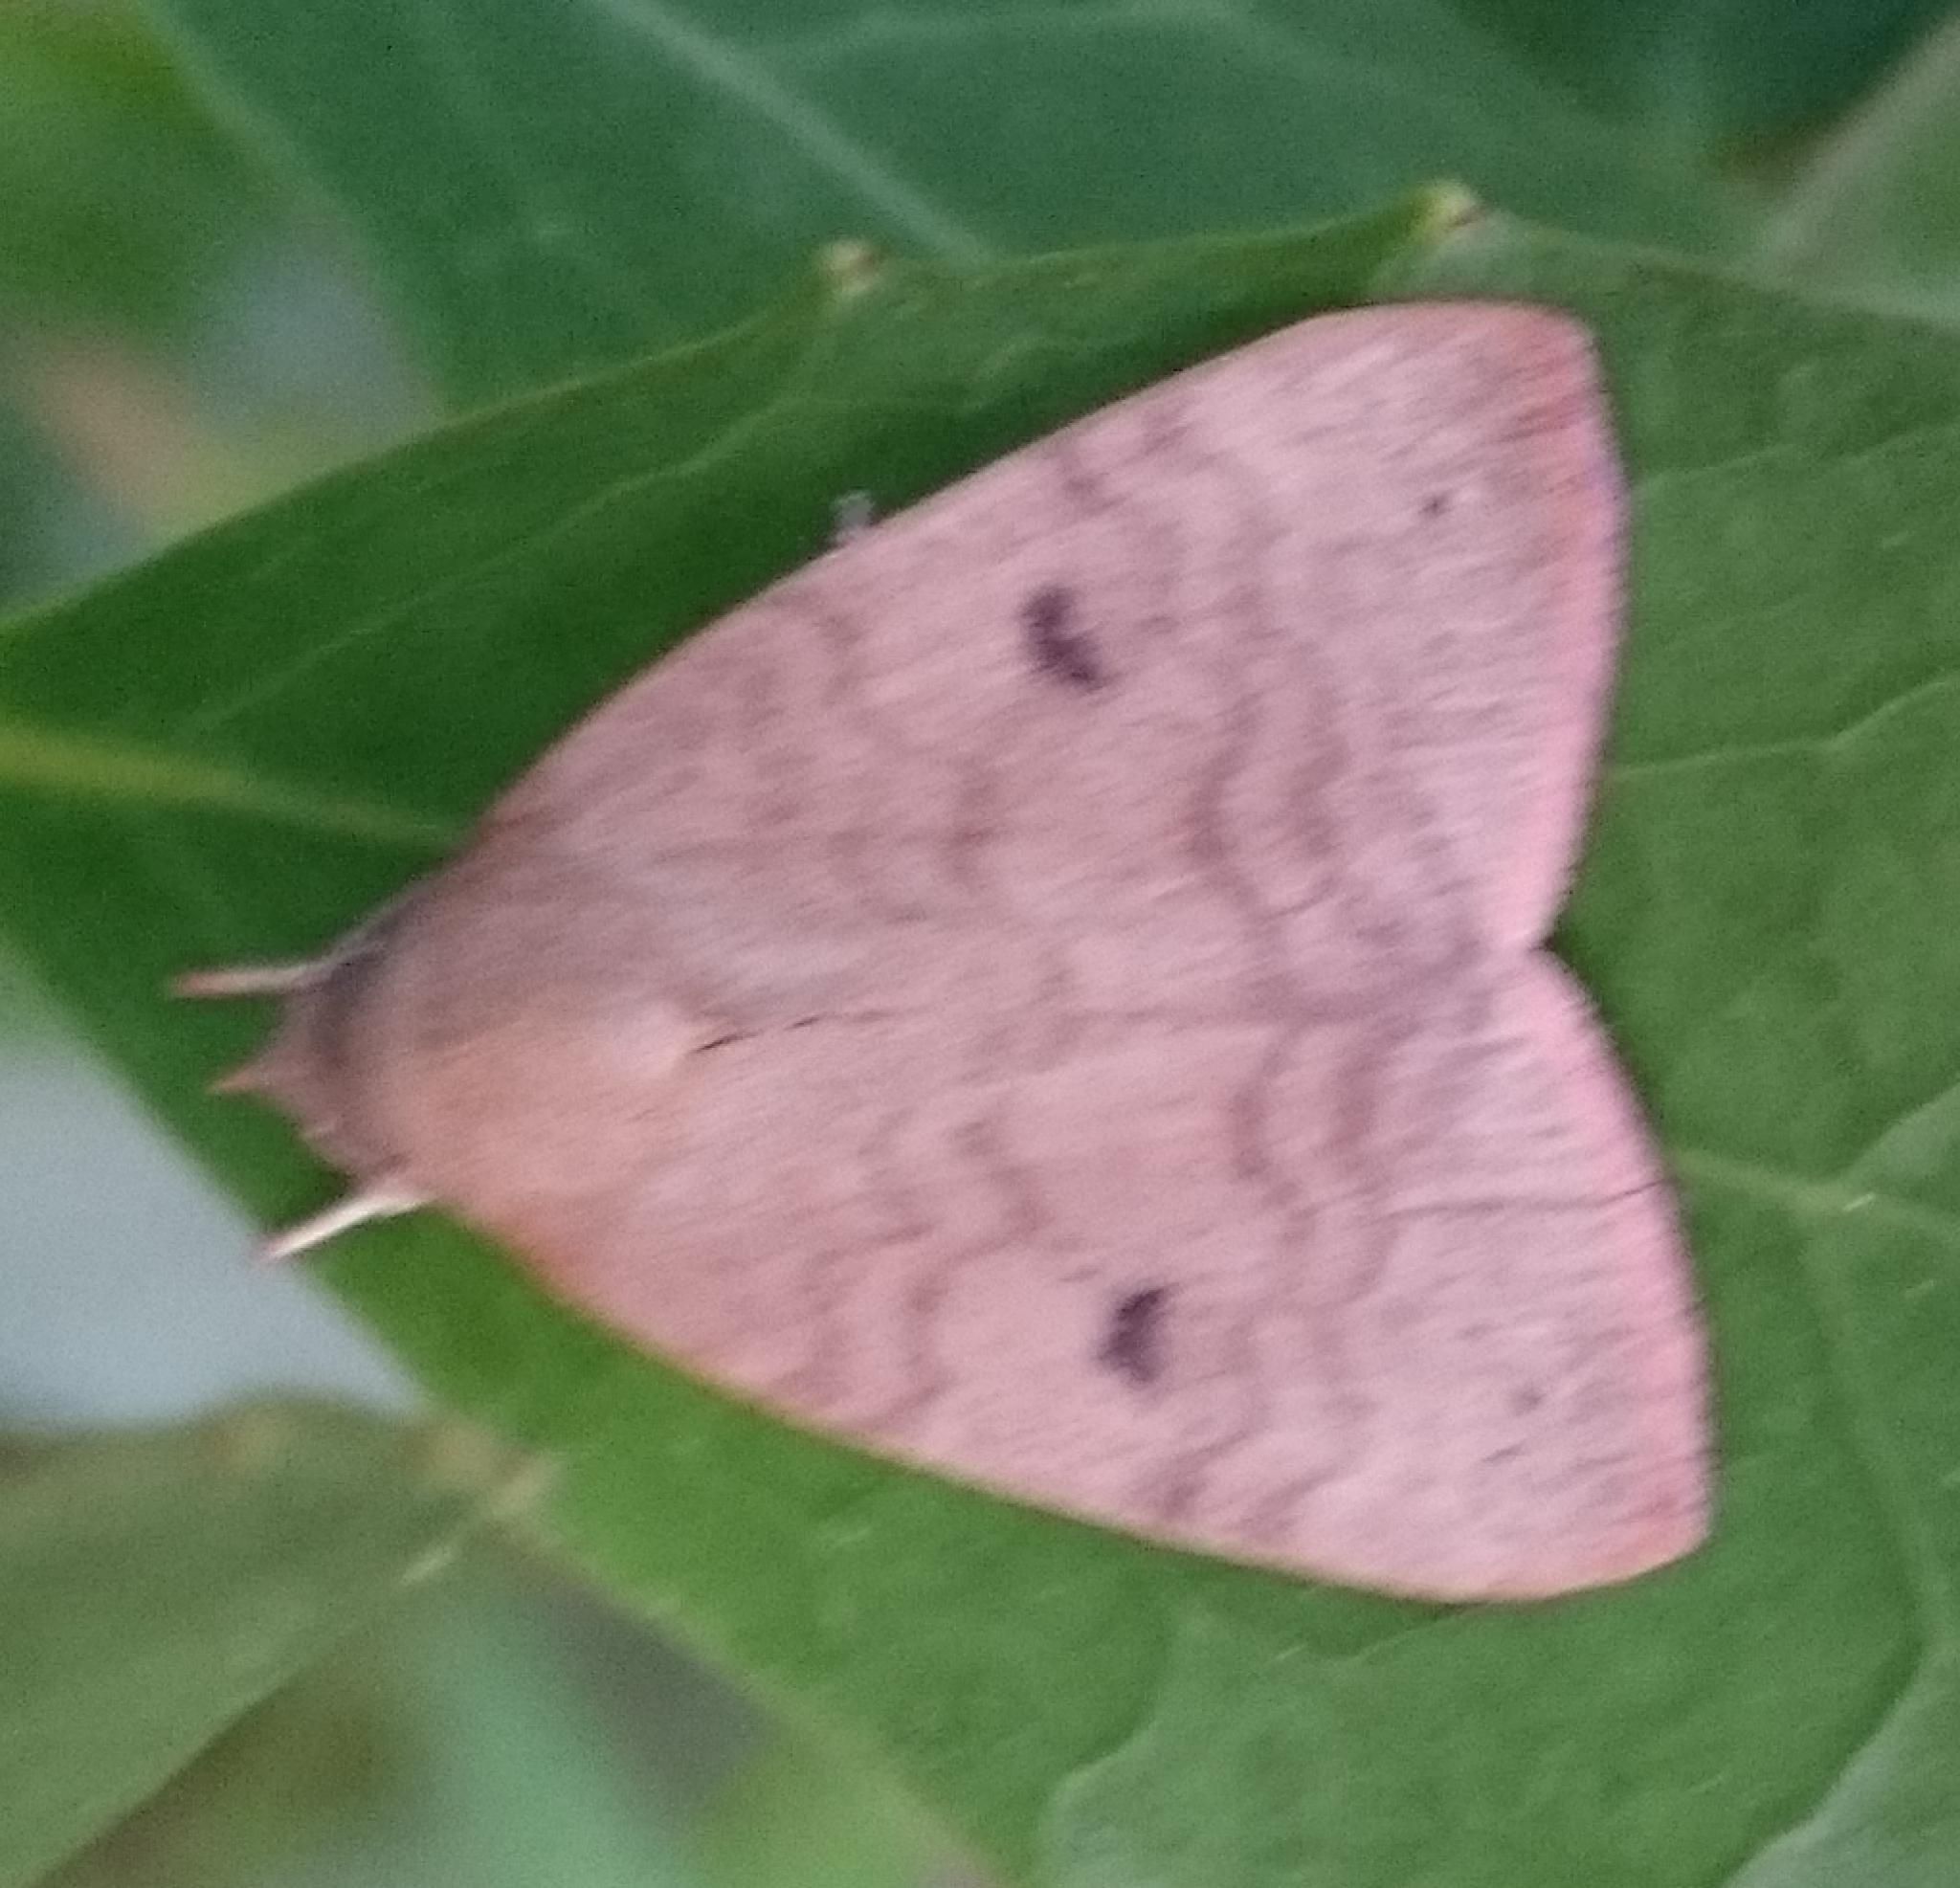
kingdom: Animalia
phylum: Arthropoda
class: Insecta
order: Lepidoptera
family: Nolidae
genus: Maurilia
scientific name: Maurilia arcuata
